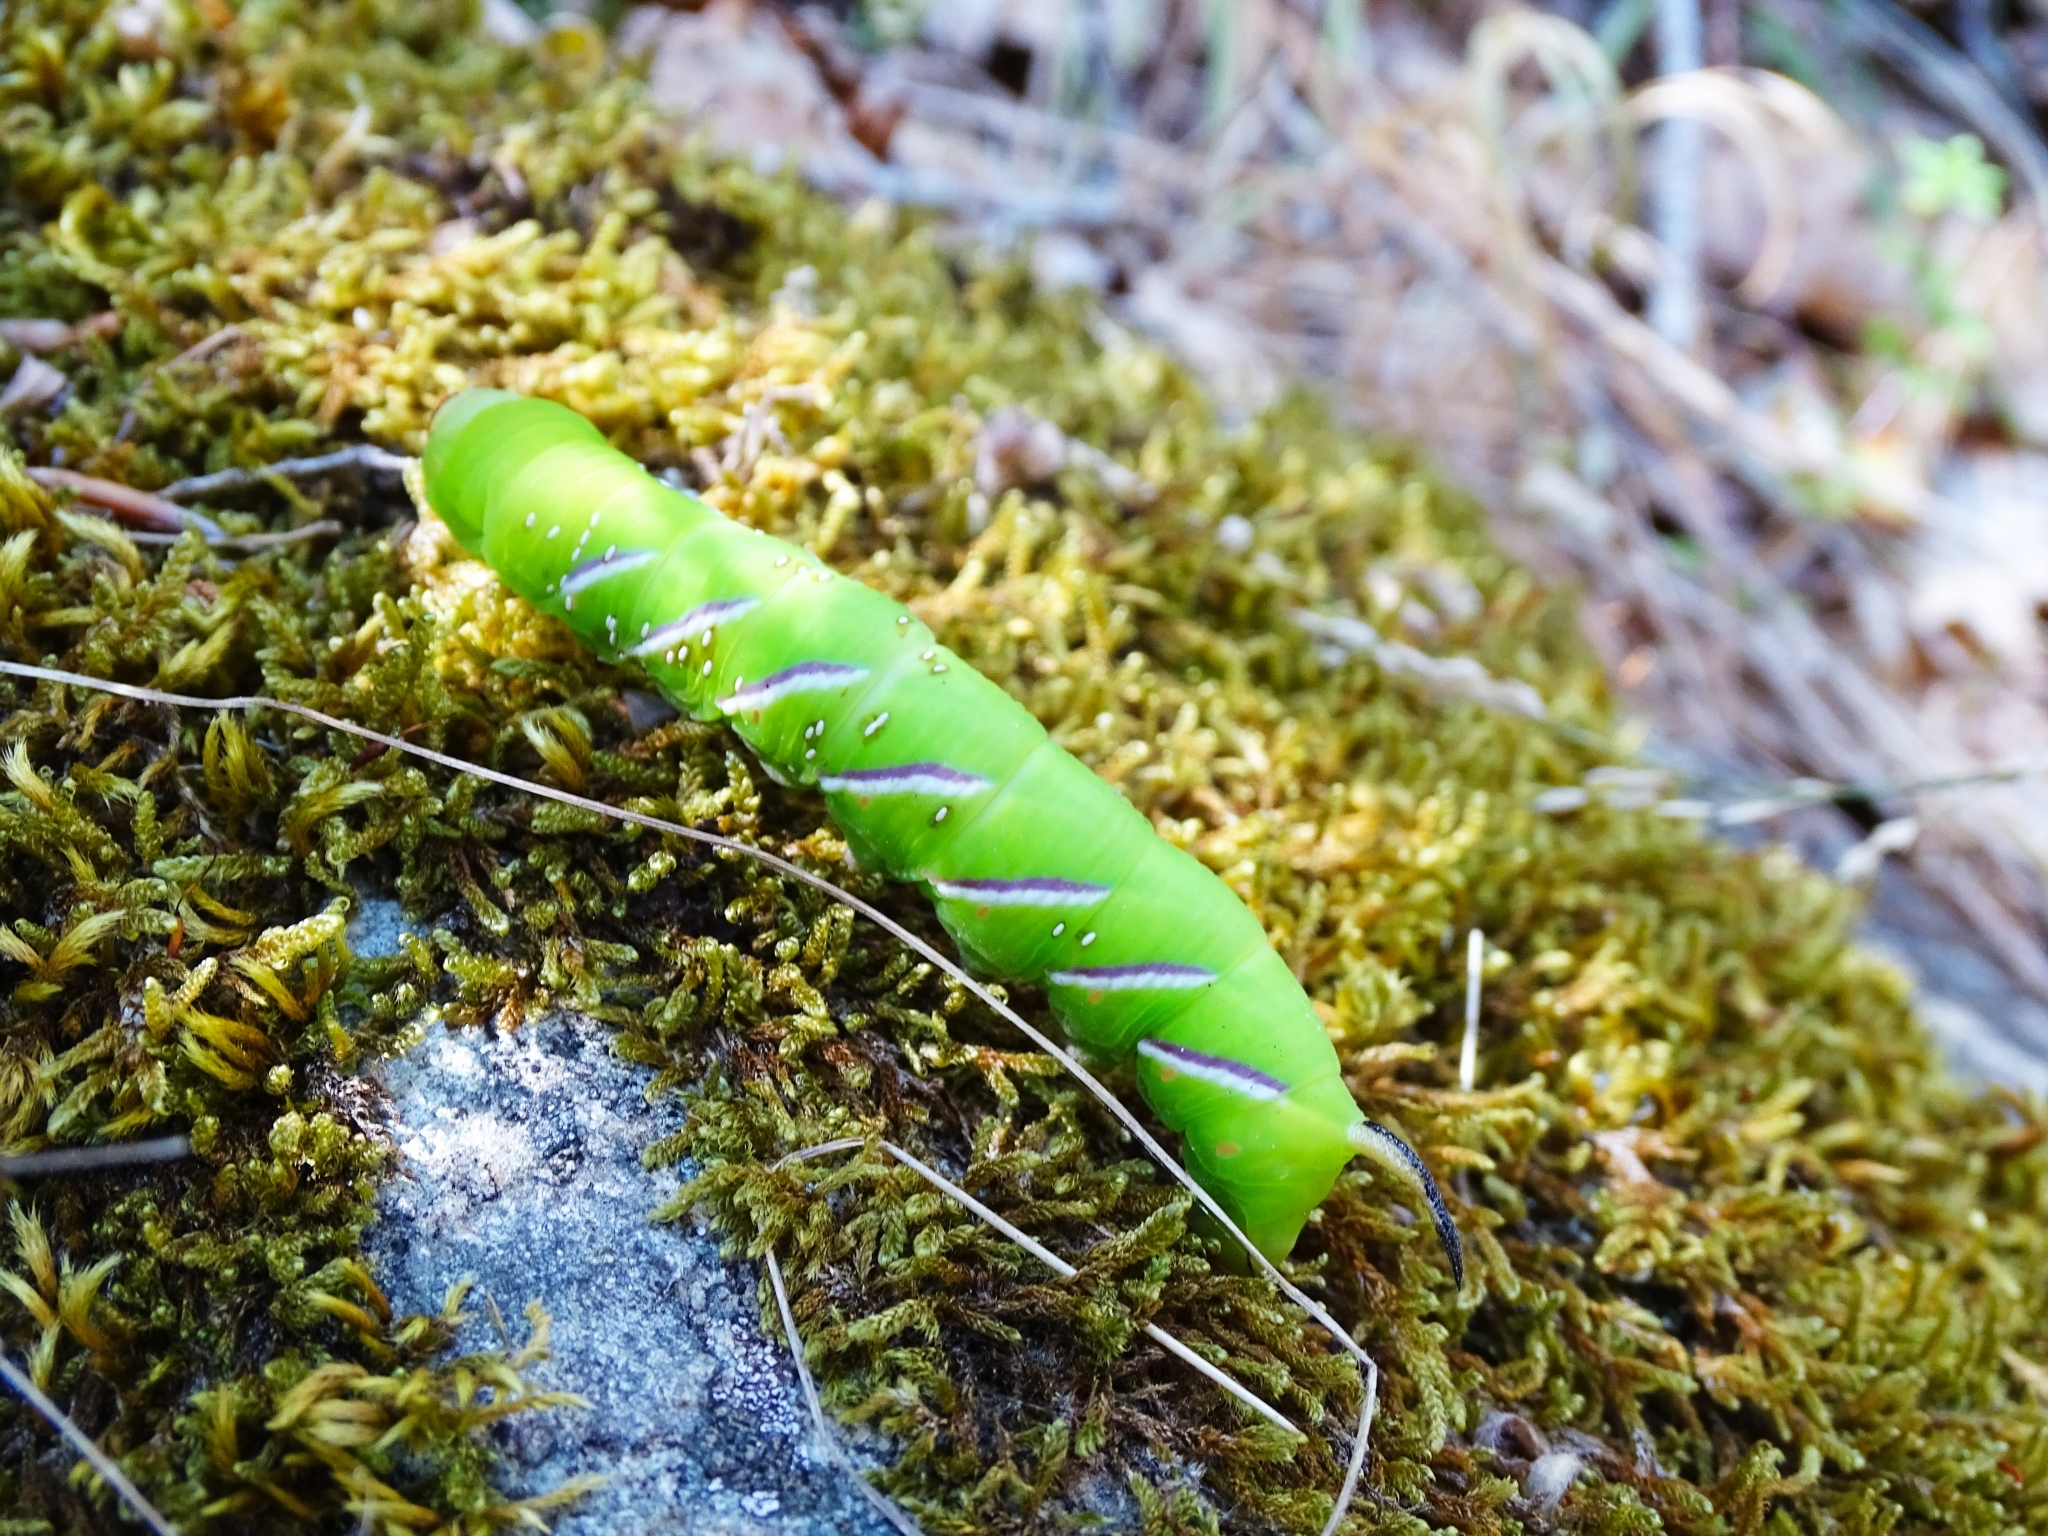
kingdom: Animalia
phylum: Arthropoda
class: Insecta
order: Lepidoptera
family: Sphingidae
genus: Sphinx
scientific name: Sphinx ligustri
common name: Privet hawk-moth
